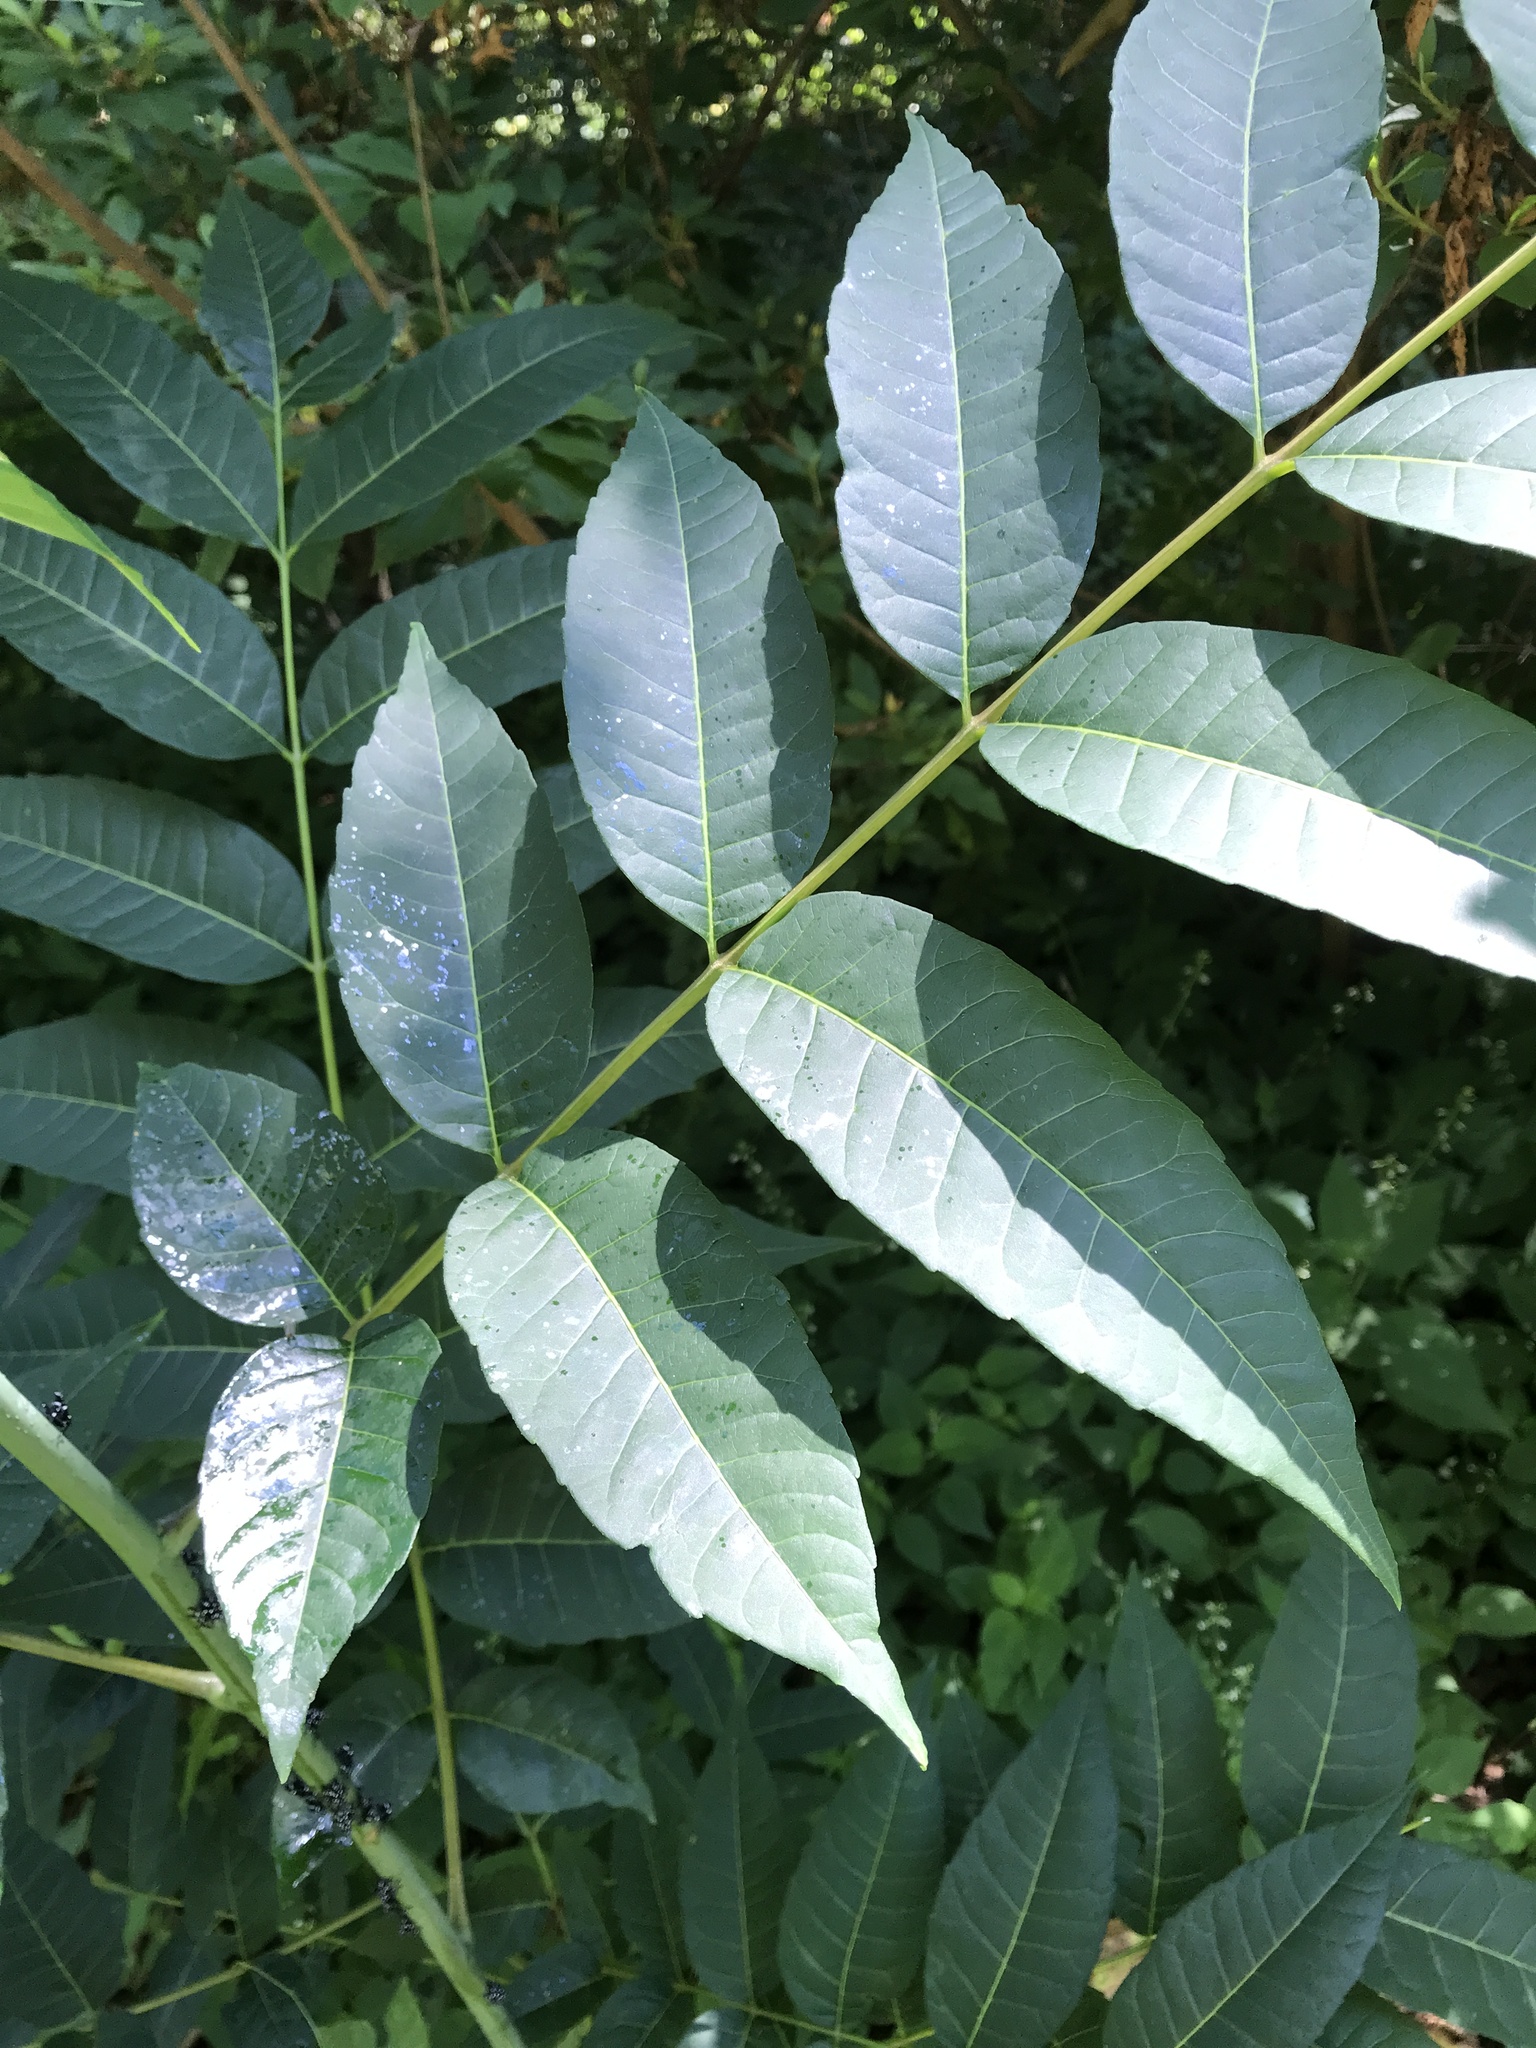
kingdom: Animalia
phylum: Arthropoda
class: Insecta
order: Hemiptera
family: Fulgoridae
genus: Lycorma
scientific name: Lycorma delicatula
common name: Spotted lanternfly
